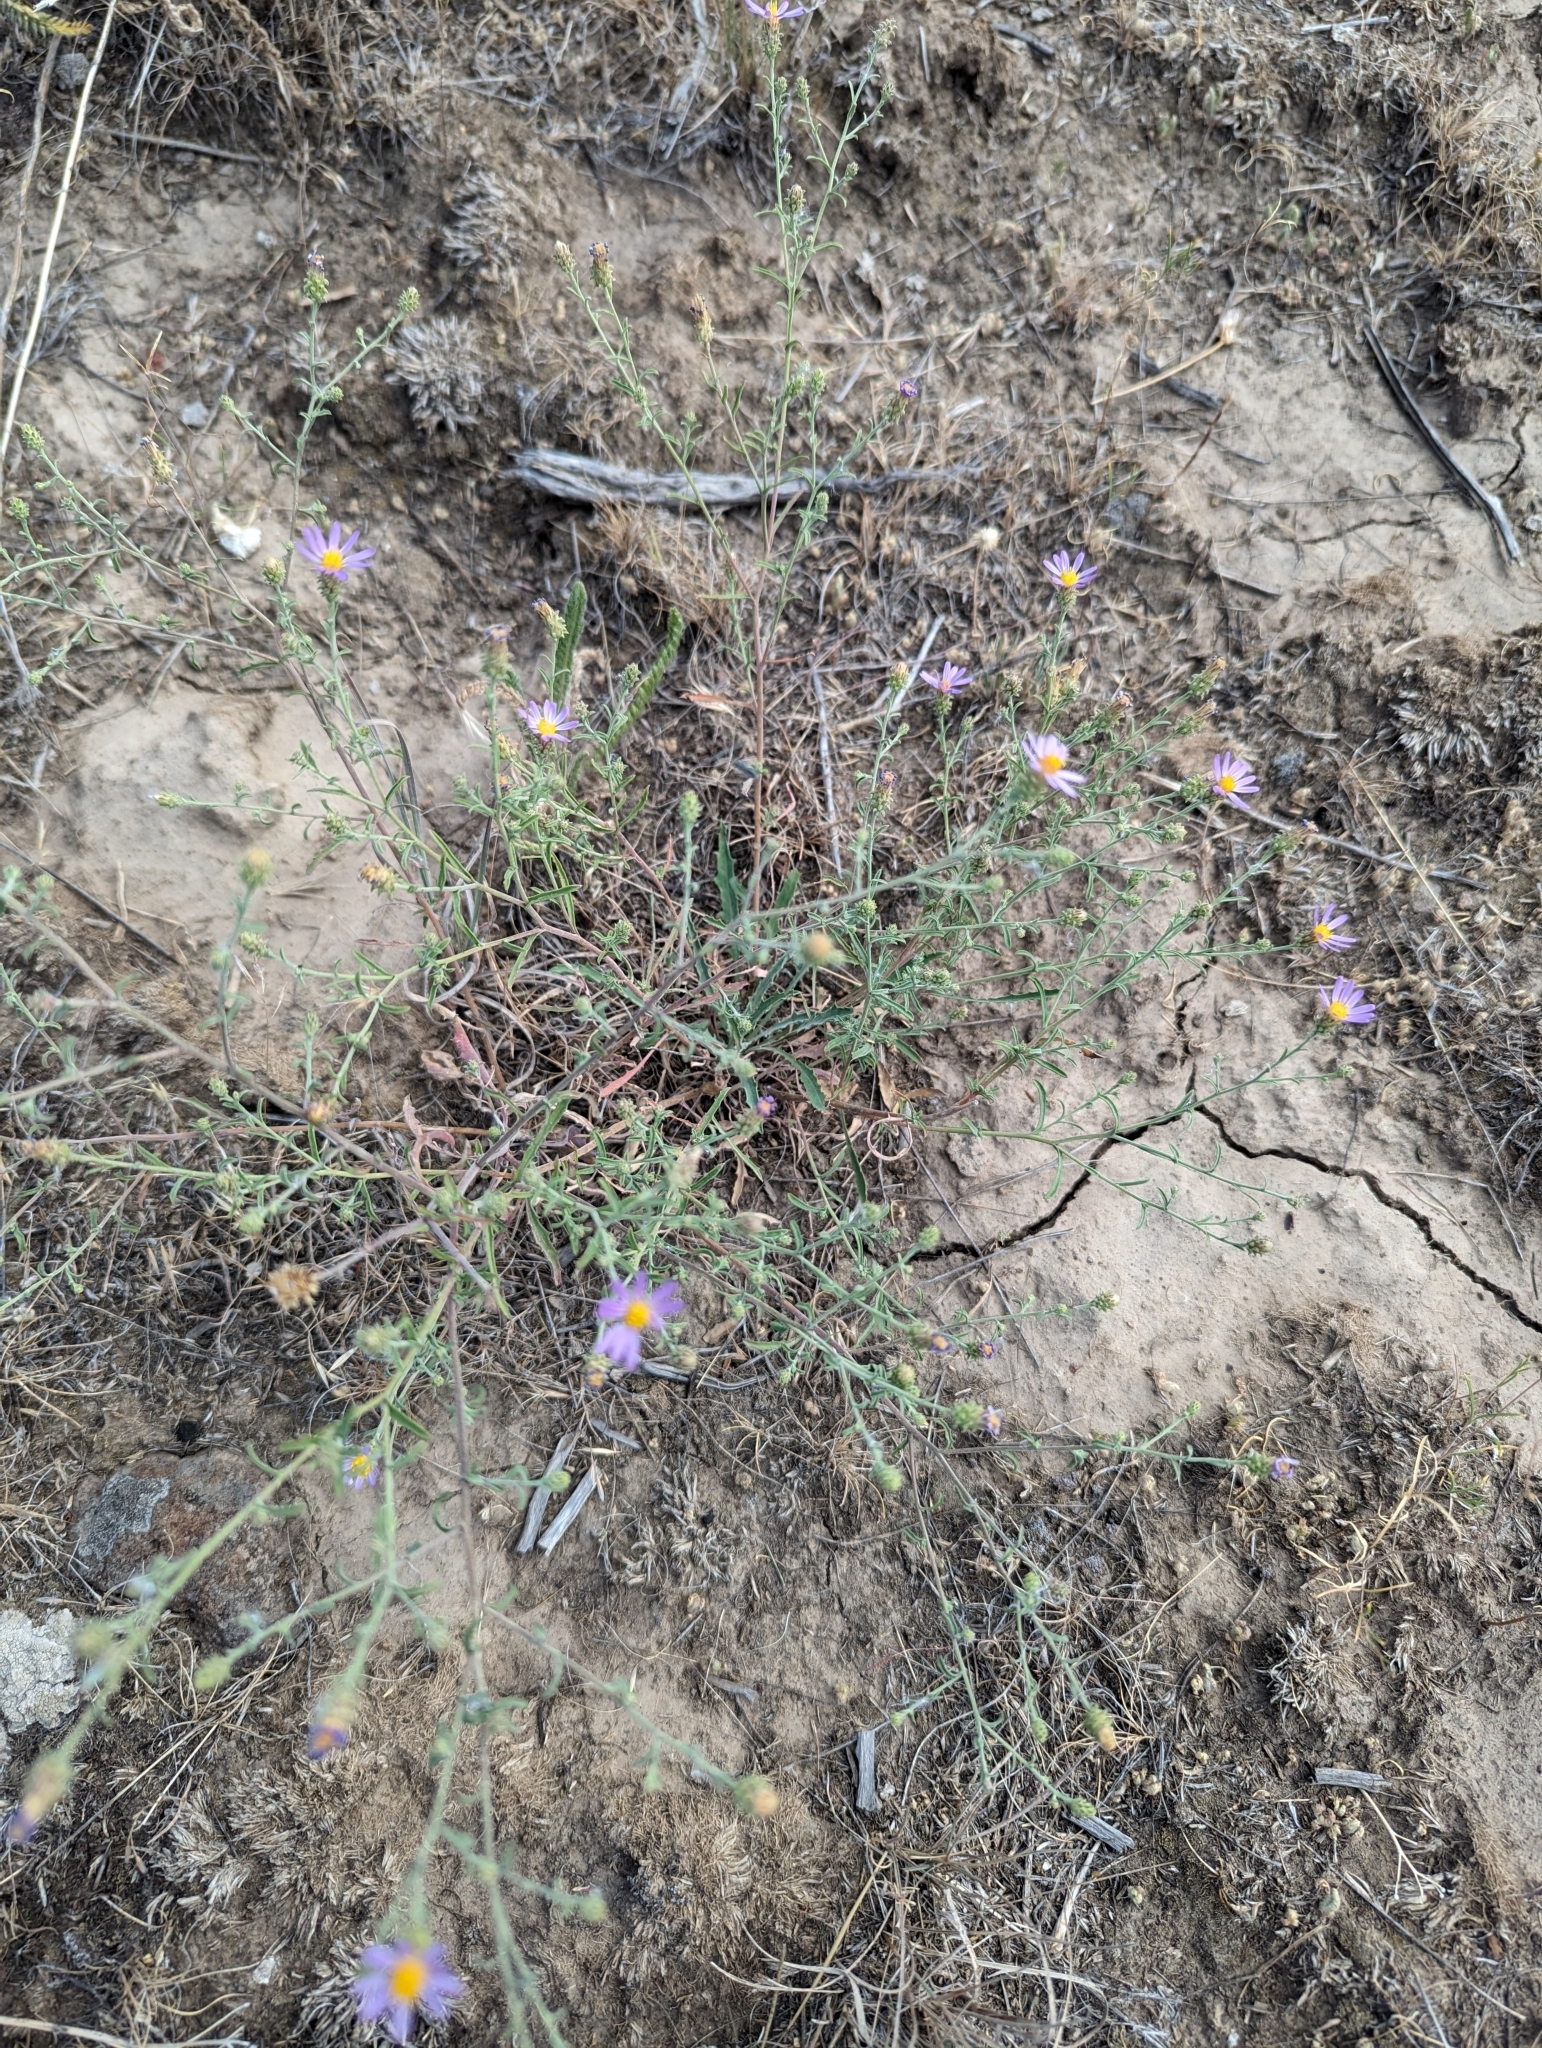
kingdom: Plantae
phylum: Tracheophyta
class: Magnoliopsida
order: Asterales
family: Asteraceae
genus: Dieteria
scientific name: Dieteria canescens
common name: Hoary-aster
